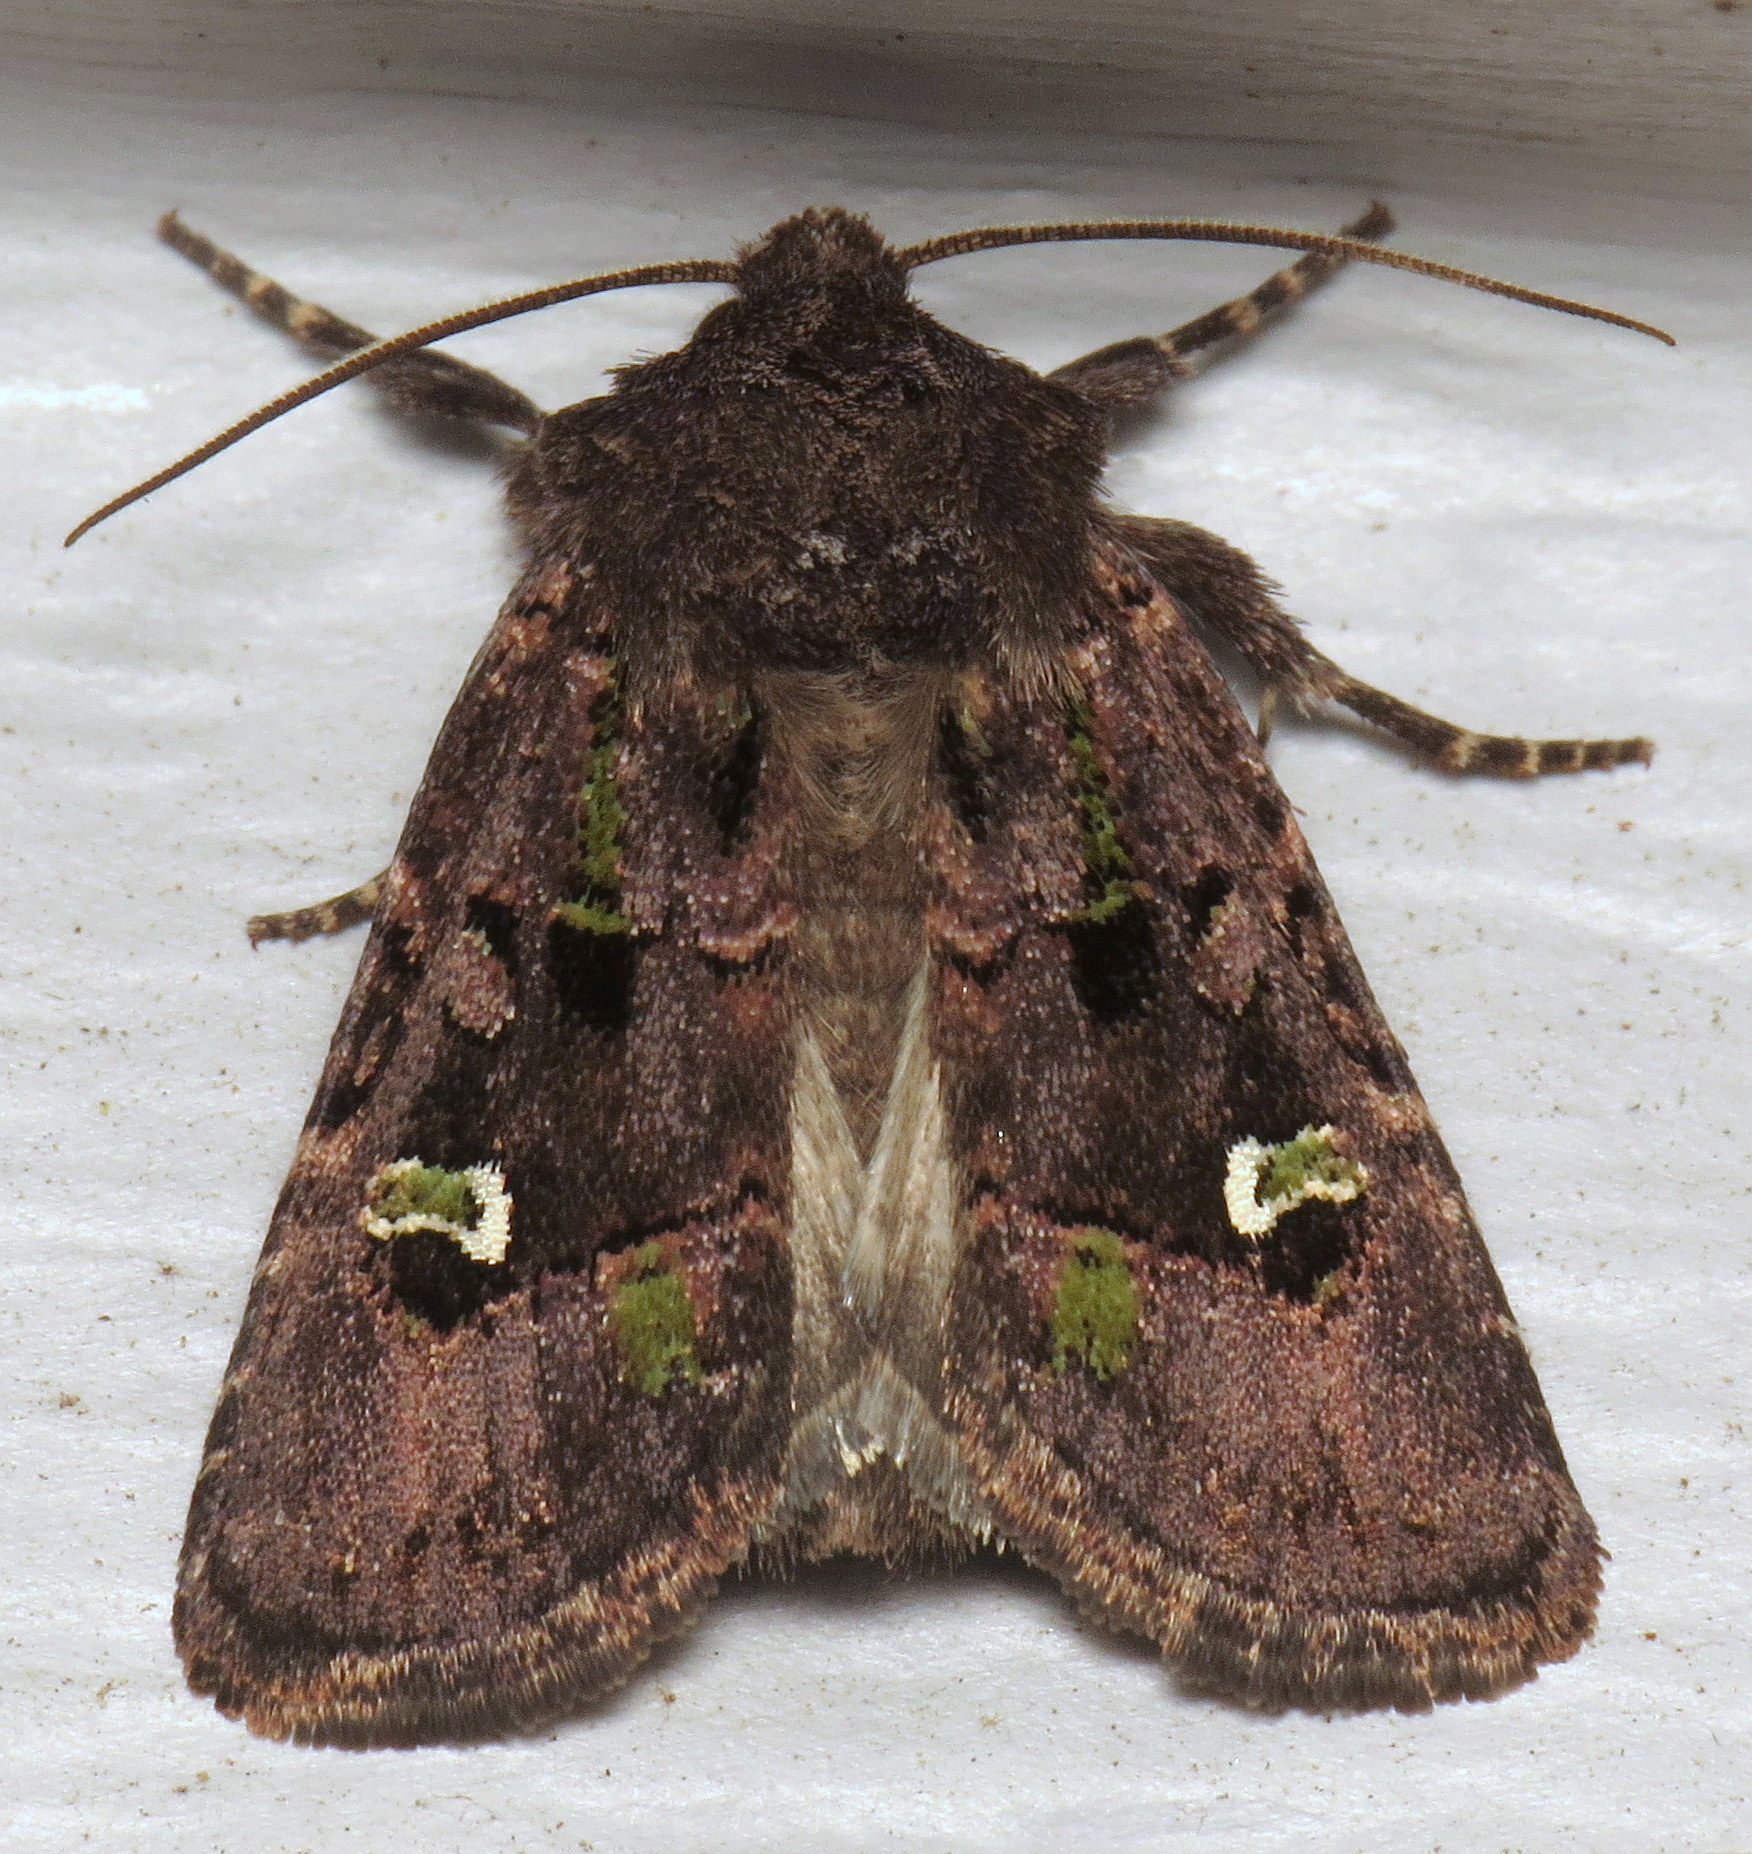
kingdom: Animalia
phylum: Arthropoda
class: Insecta
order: Lepidoptera
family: Noctuidae
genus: Lacinipolia
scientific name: Lacinipolia renigera
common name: Kidney-spotted minor
